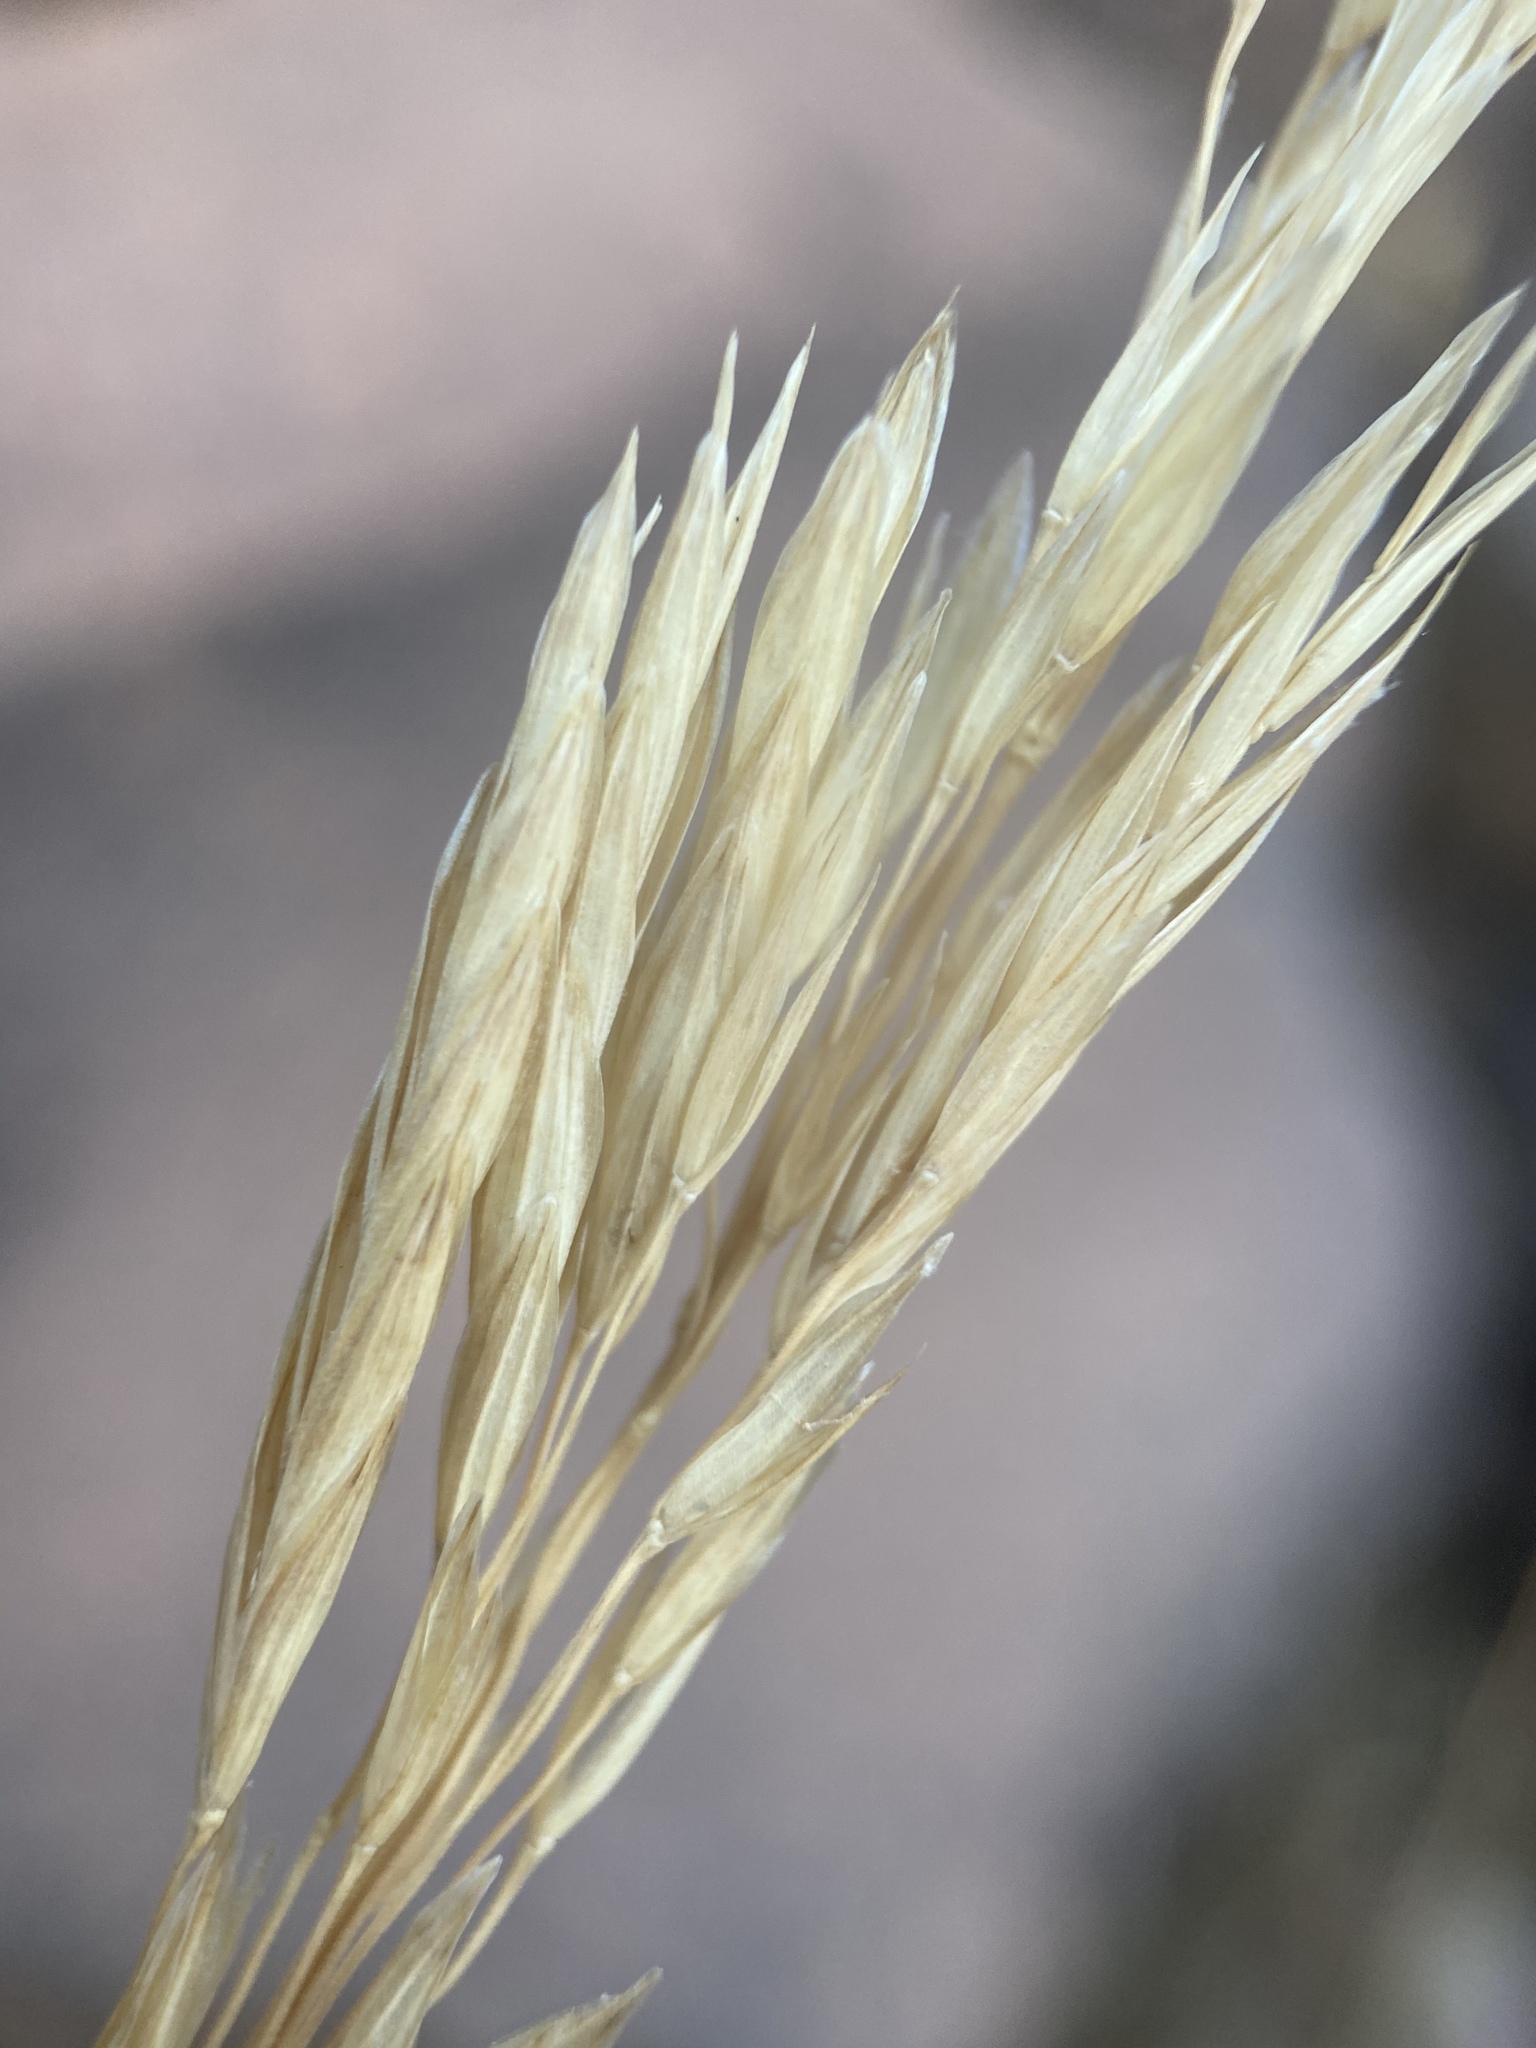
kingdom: Plantae
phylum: Tracheophyta
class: Liliopsida
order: Poales
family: Poaceae
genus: Bromus
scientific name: Bromus inermis
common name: Smooth brome
